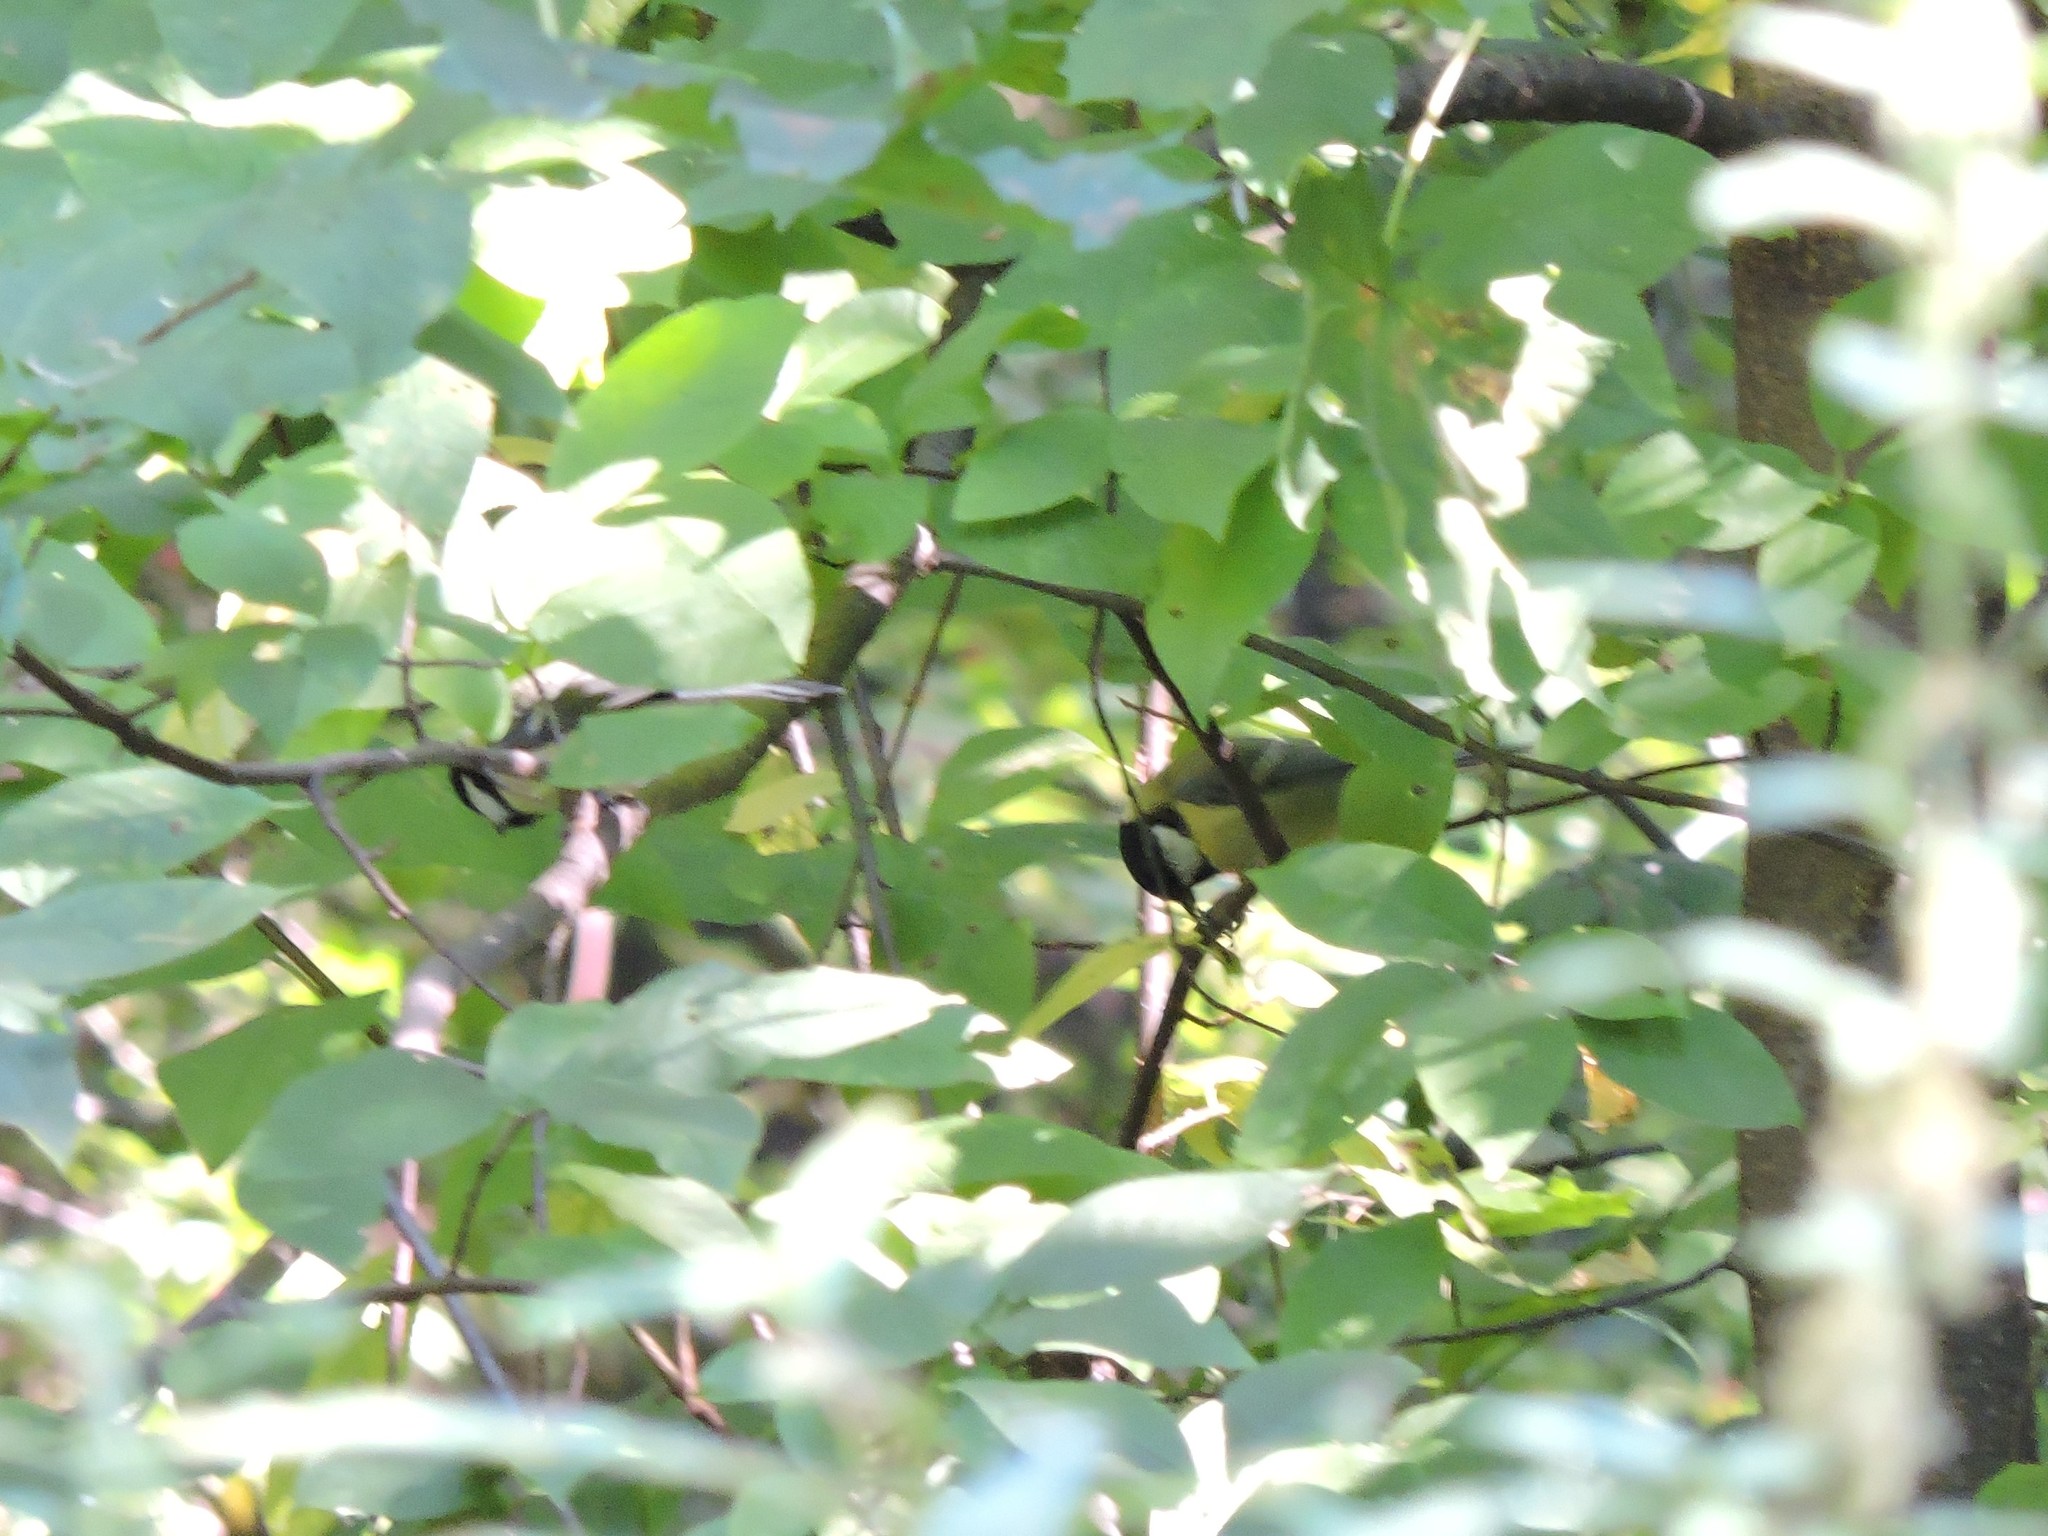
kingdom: Animalia
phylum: Chordata
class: Aves
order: Passeriformes
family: Paridae
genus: Parus
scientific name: Parus major
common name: Great tit
